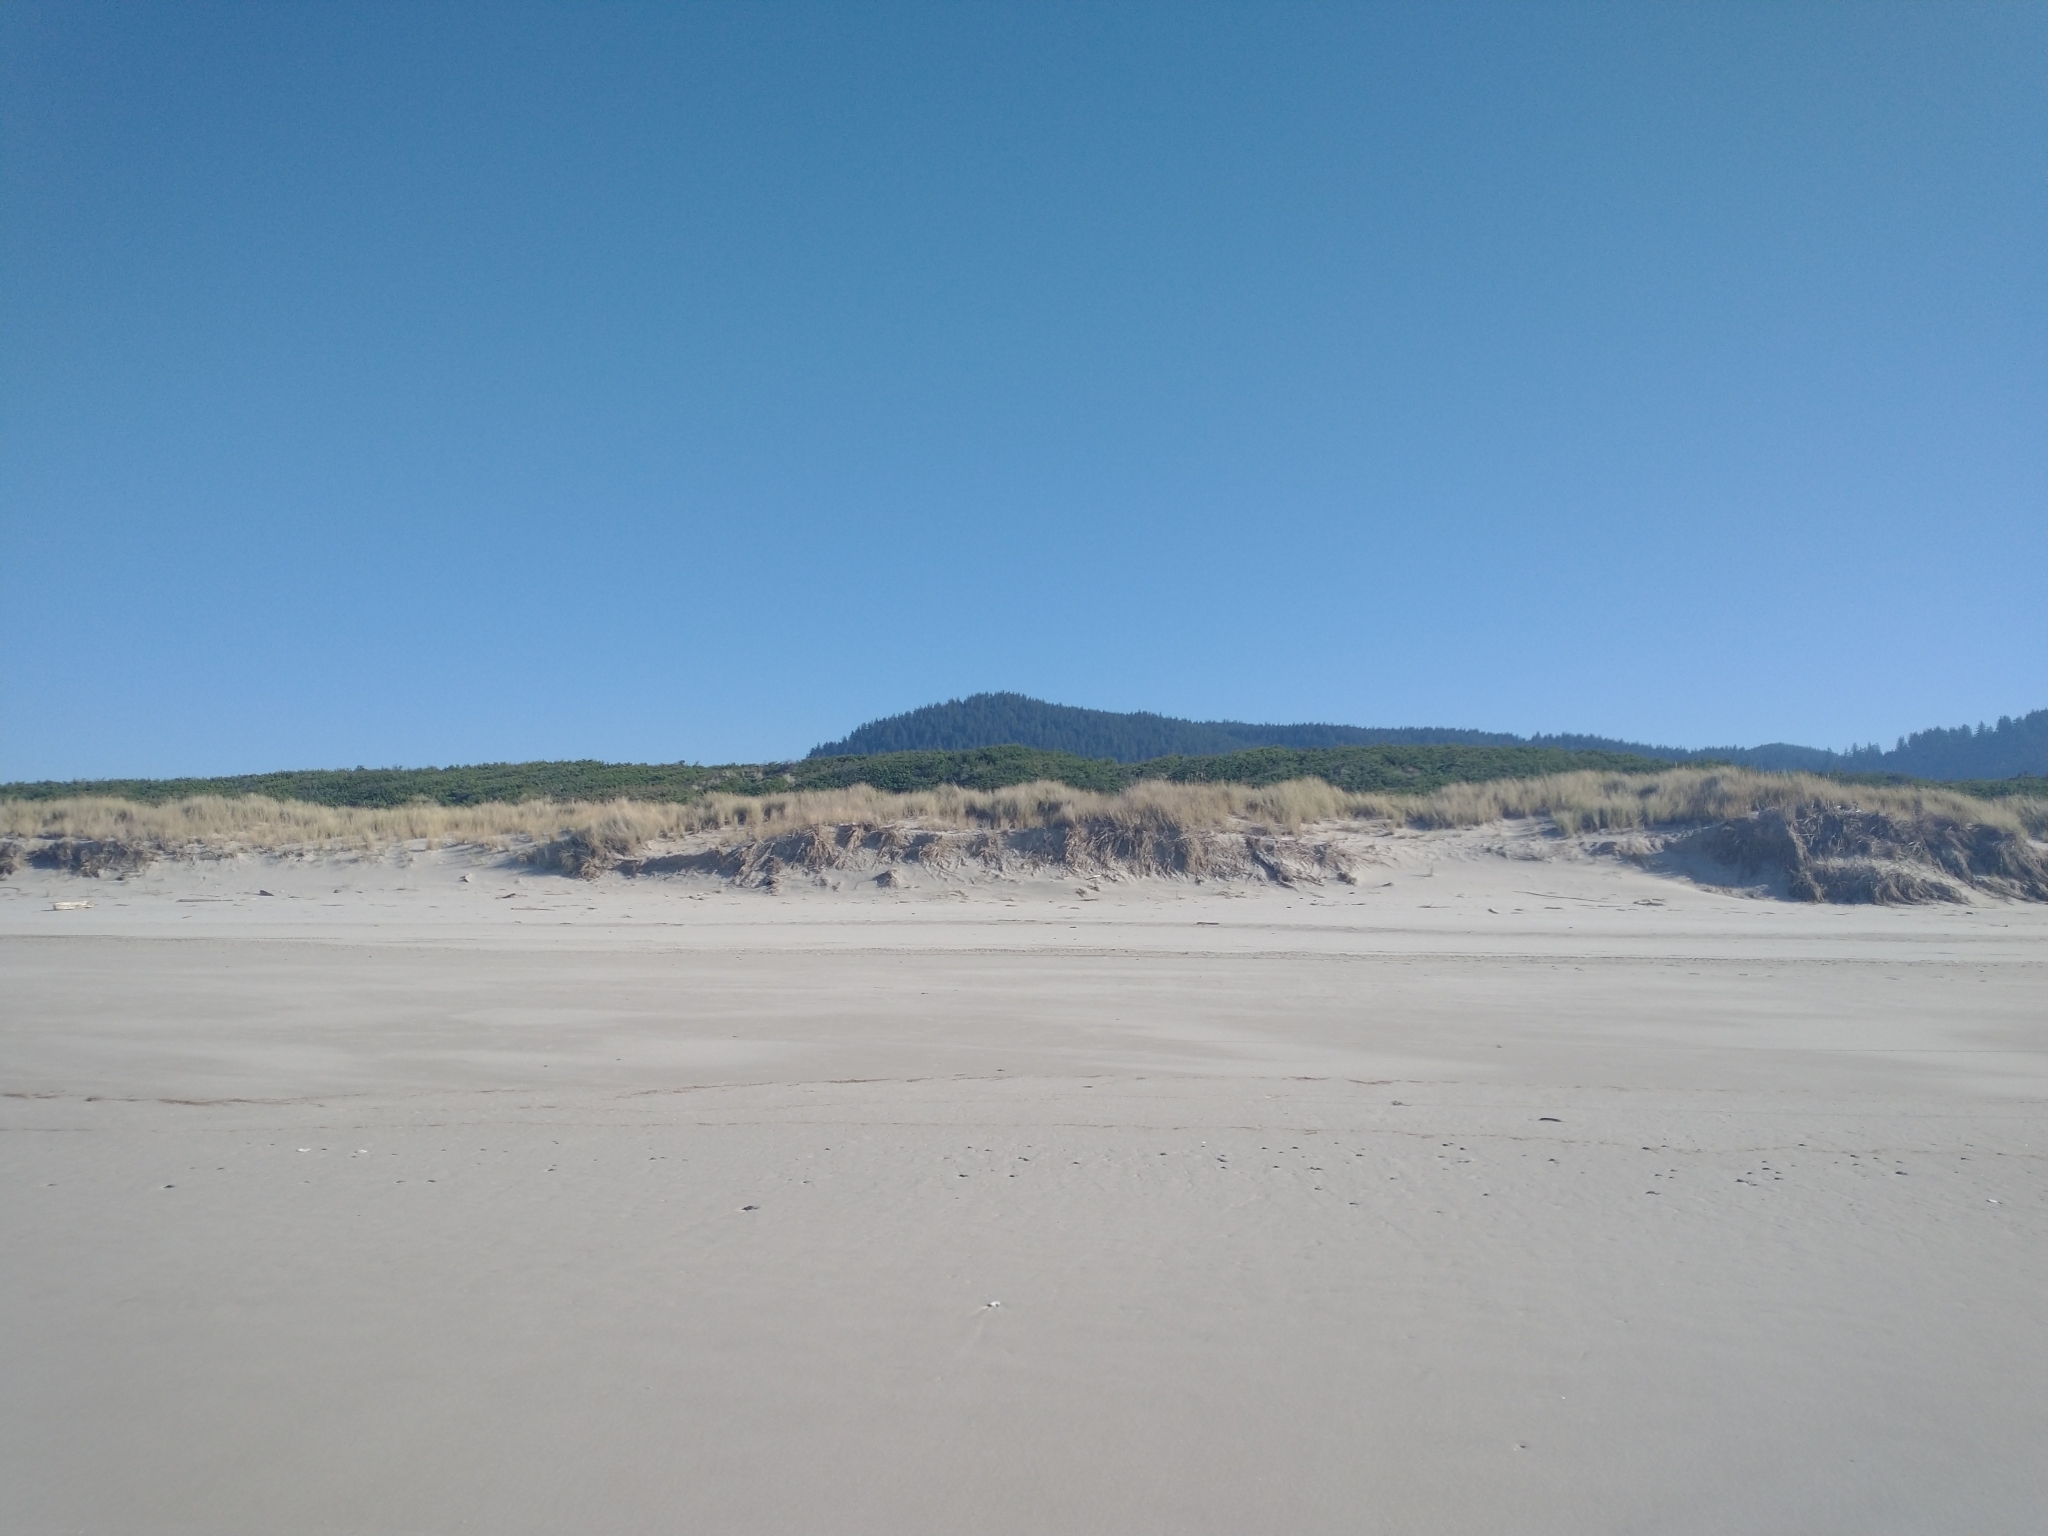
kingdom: Plantae
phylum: Tracheophyta
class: Pinopsida
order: Pinales
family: Pinaceae
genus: Pinus
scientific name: Pinus contorta
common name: Lodgepole pine
